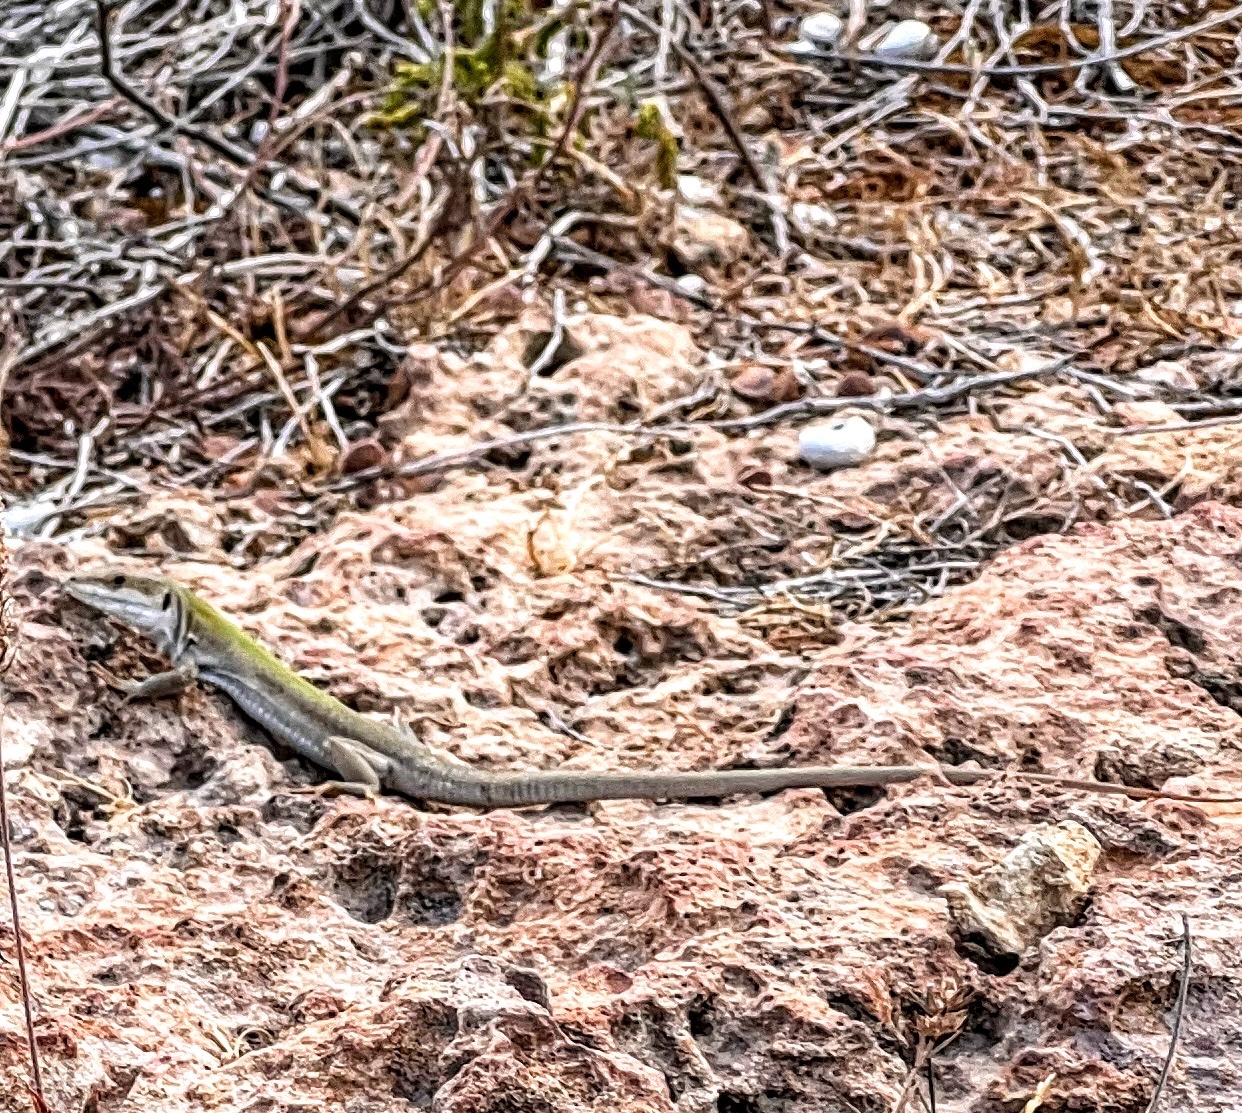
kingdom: Animalia
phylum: Chordata
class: Squamata
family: Lacertidae
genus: Podarcis
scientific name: Podarcis siculus
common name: Italian wall lizard
